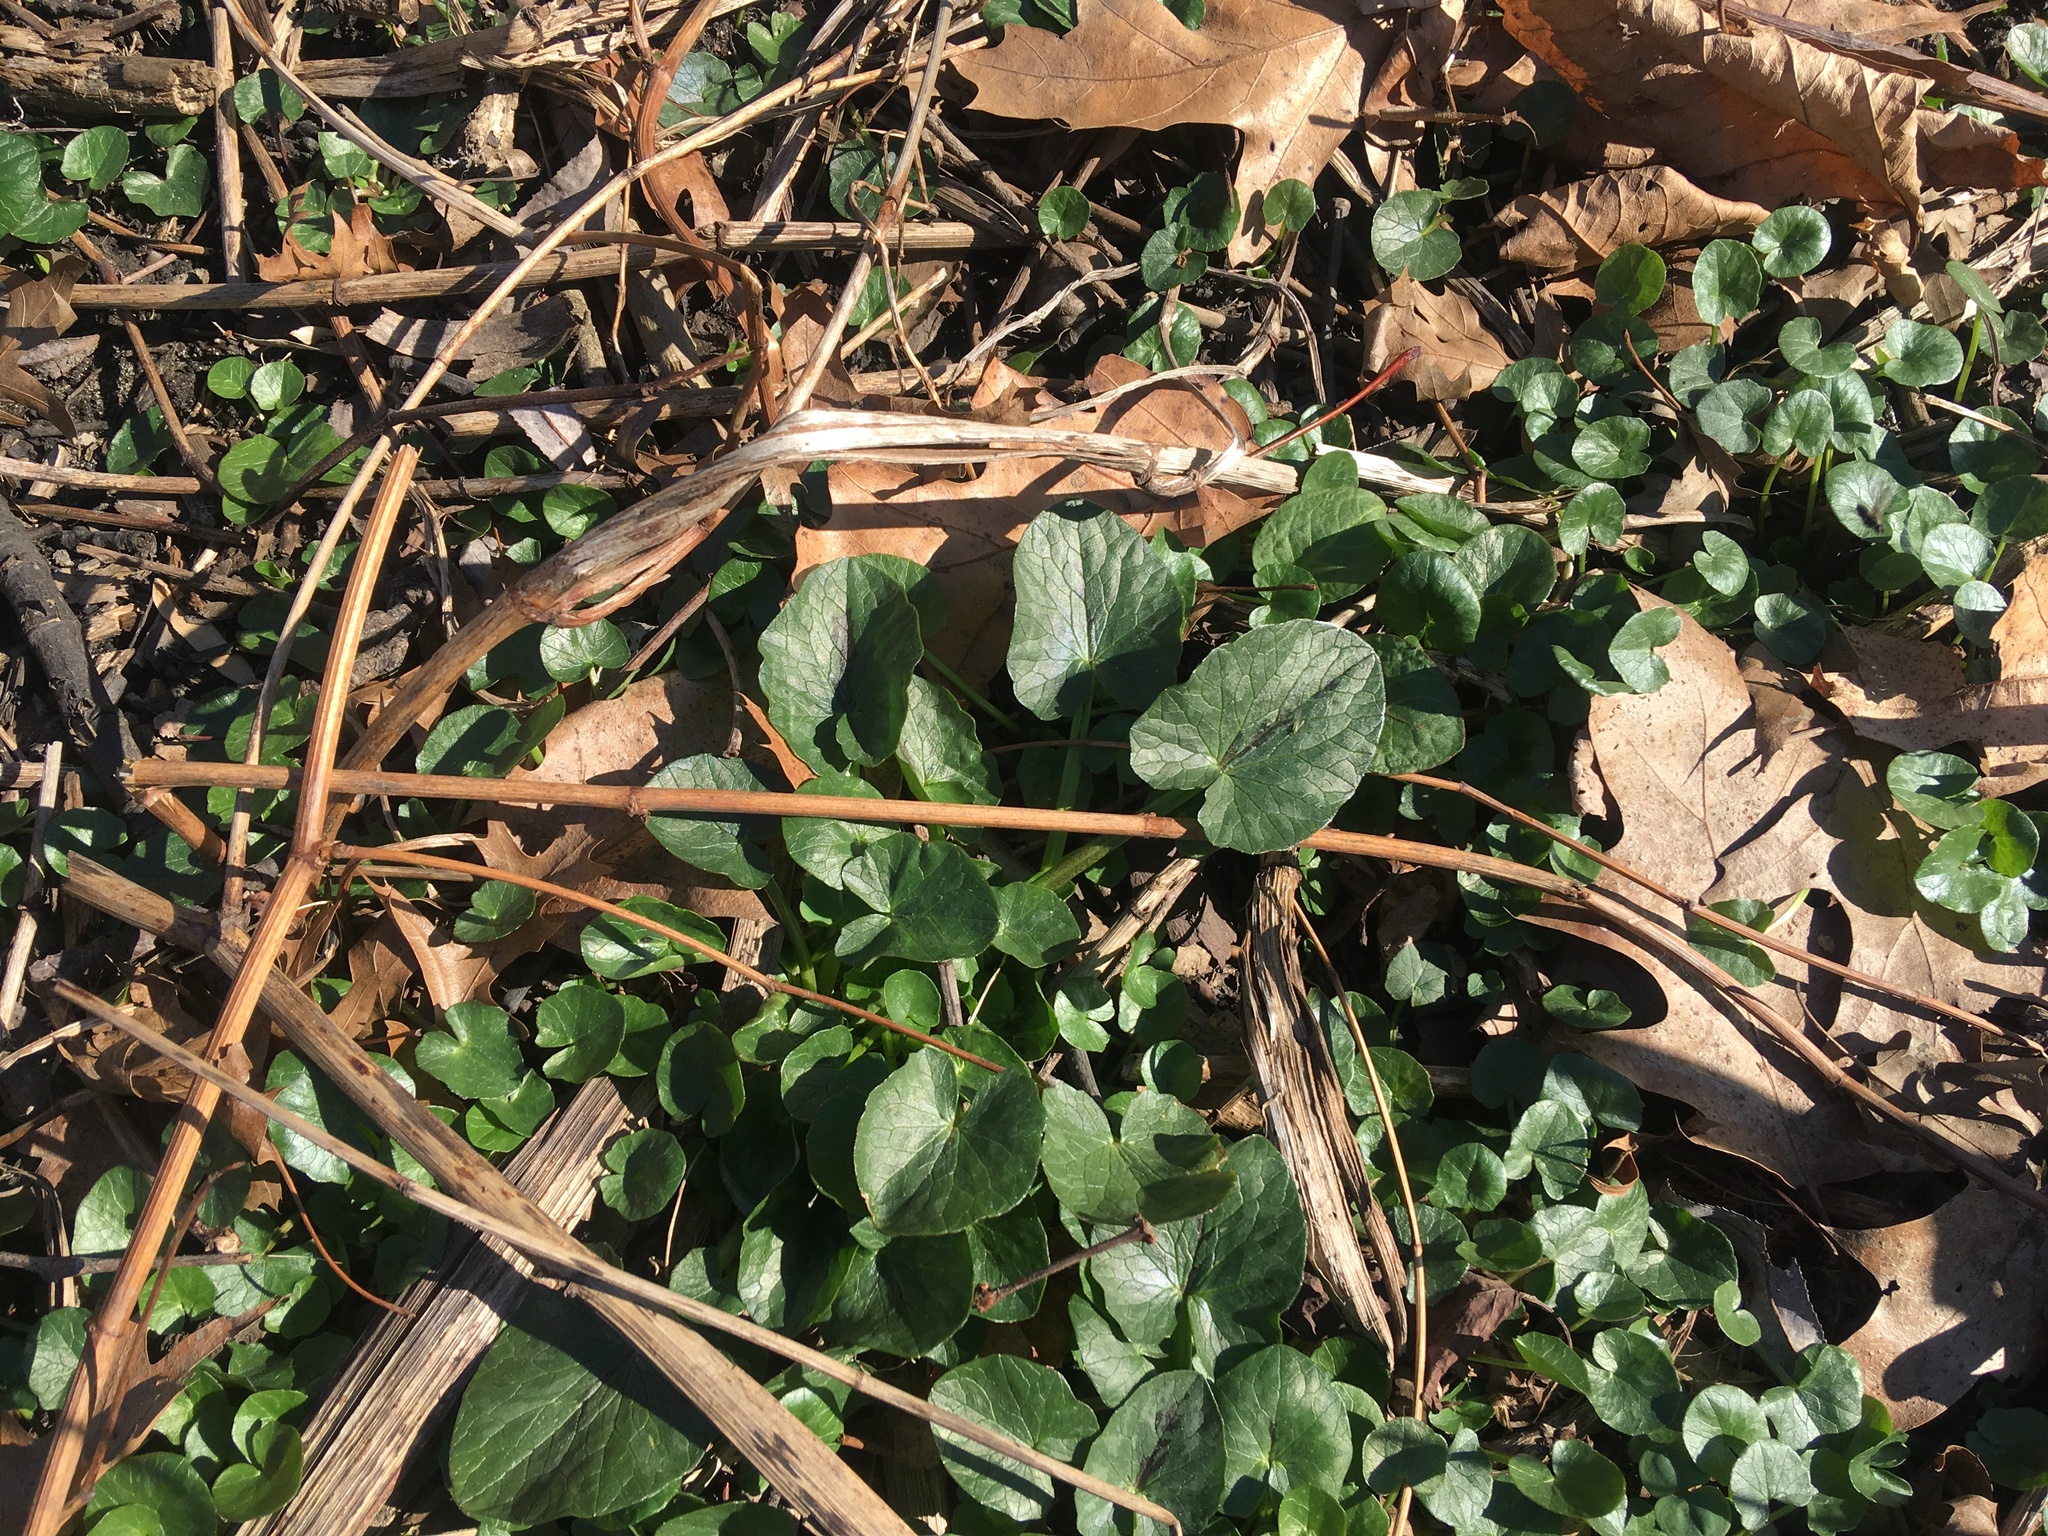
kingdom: Plantae
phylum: Tracheophyta
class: Magnoliopsida
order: Ranunculales
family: Ranunculaceae
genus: Ficaria
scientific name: Ficaria verna
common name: Lesser celandine
